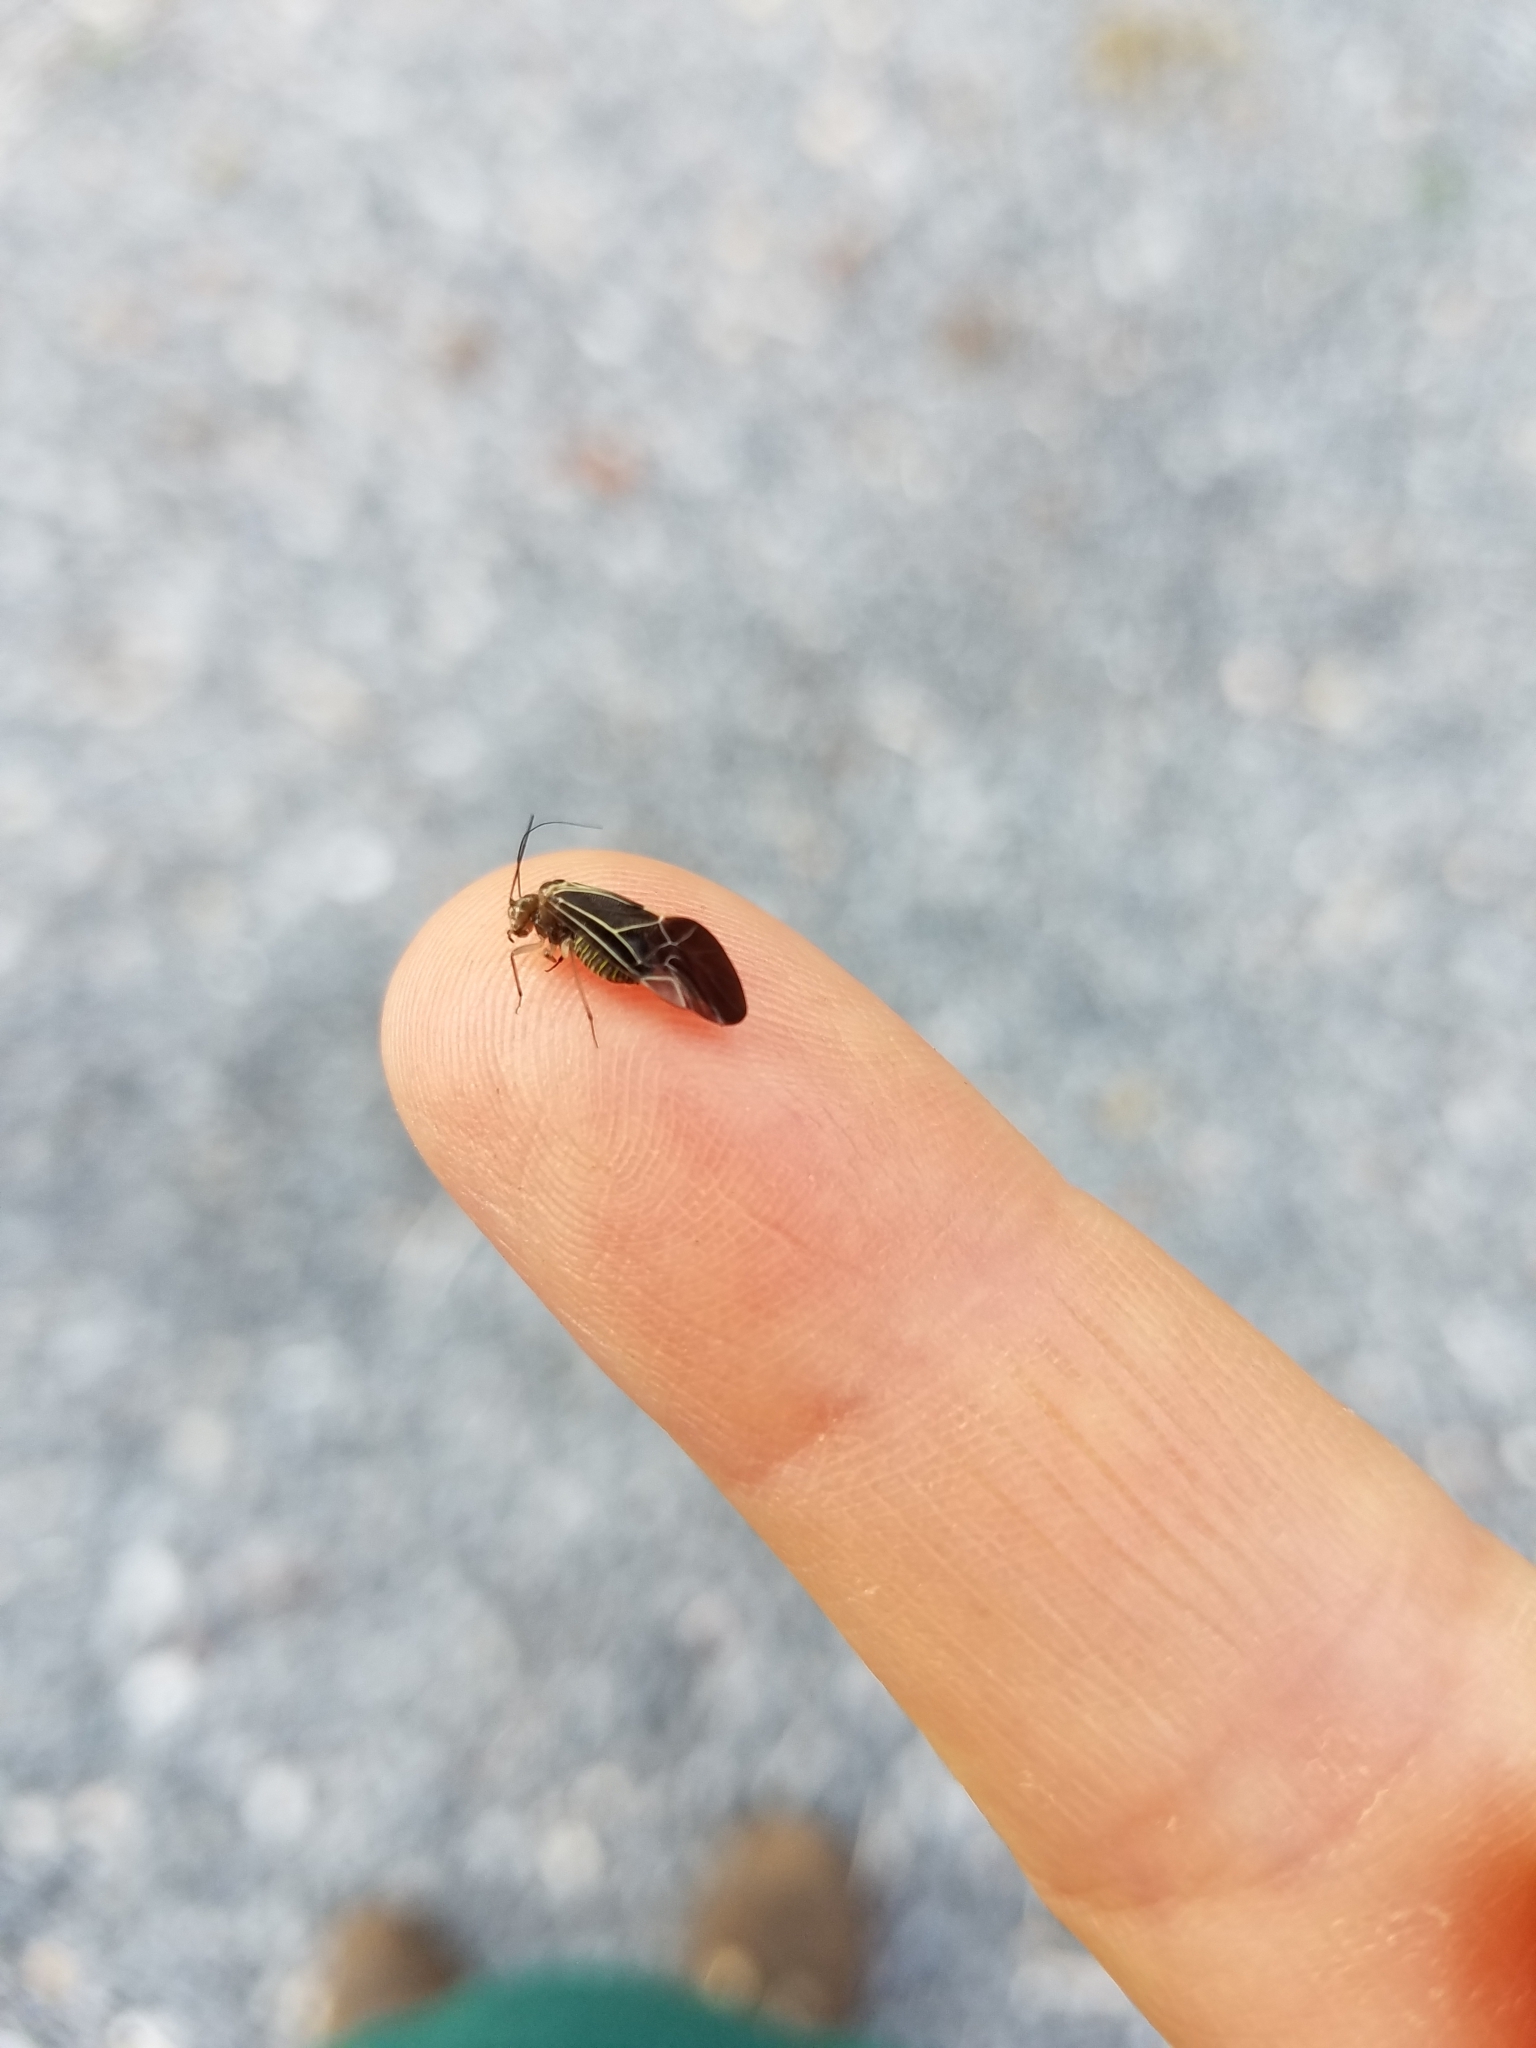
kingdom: Animalia
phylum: Arthropoda
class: Insecta
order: Psocodea
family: Psocidae
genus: Cerastipsocus
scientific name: Cerastipsocus venosus
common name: Tree cattle
